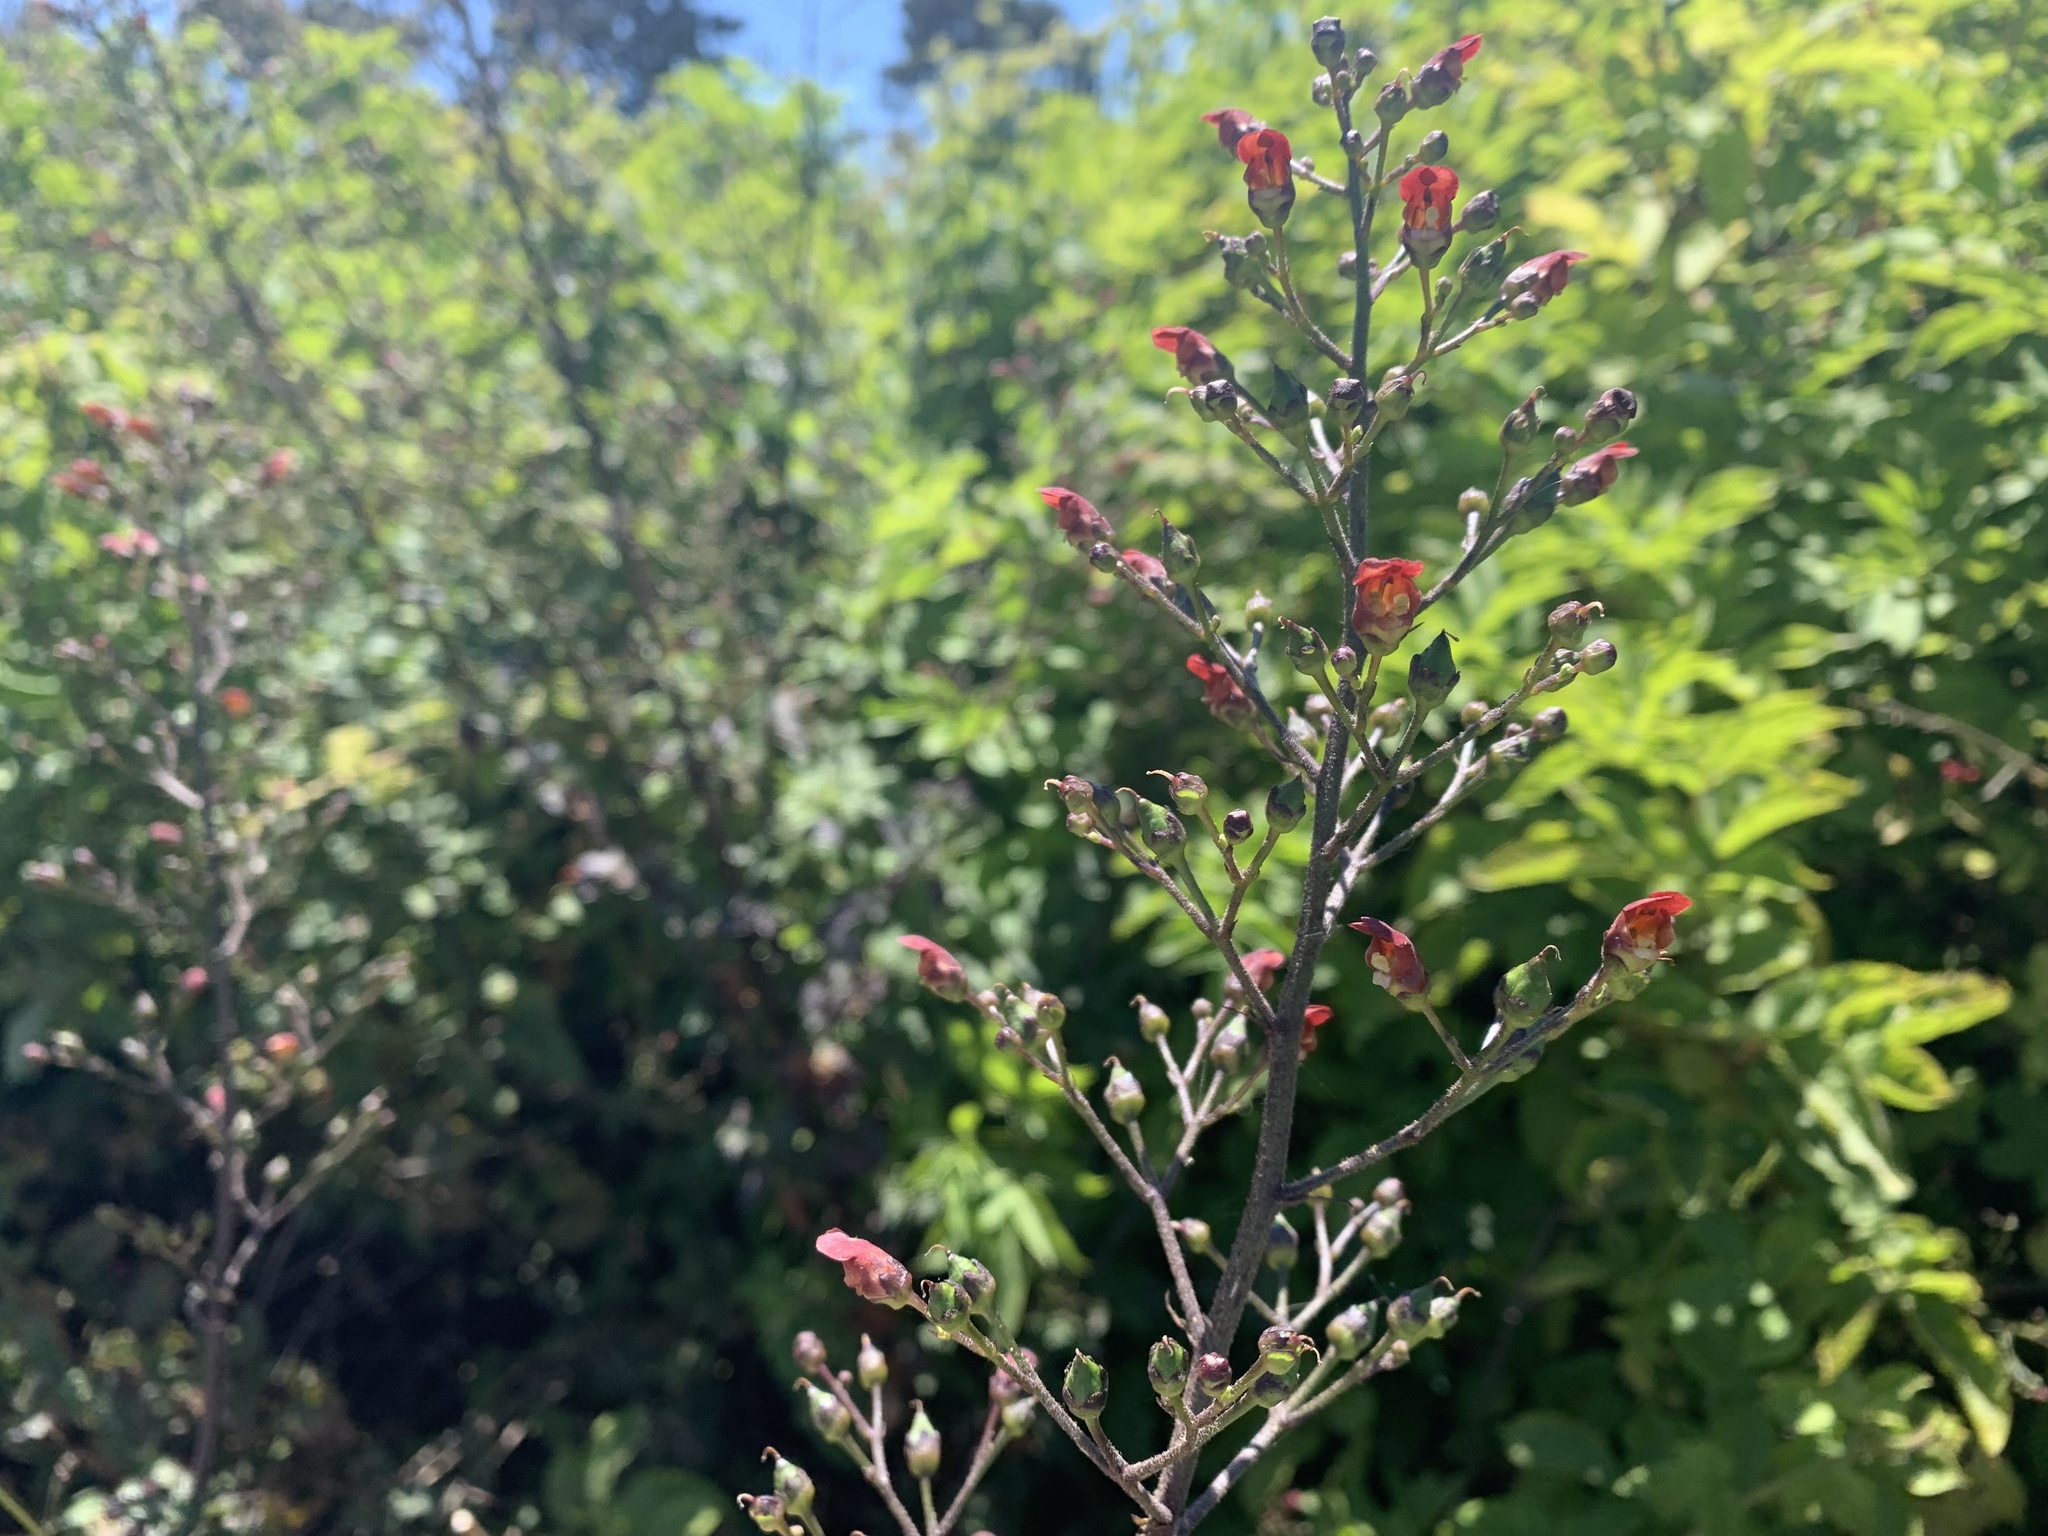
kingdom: Plantae
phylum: Tracheophyta
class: Magnoliopsida
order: Lamiales
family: Scrophulariaceae
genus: Scrophularia
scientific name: Scrophularia californica
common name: California figwort
